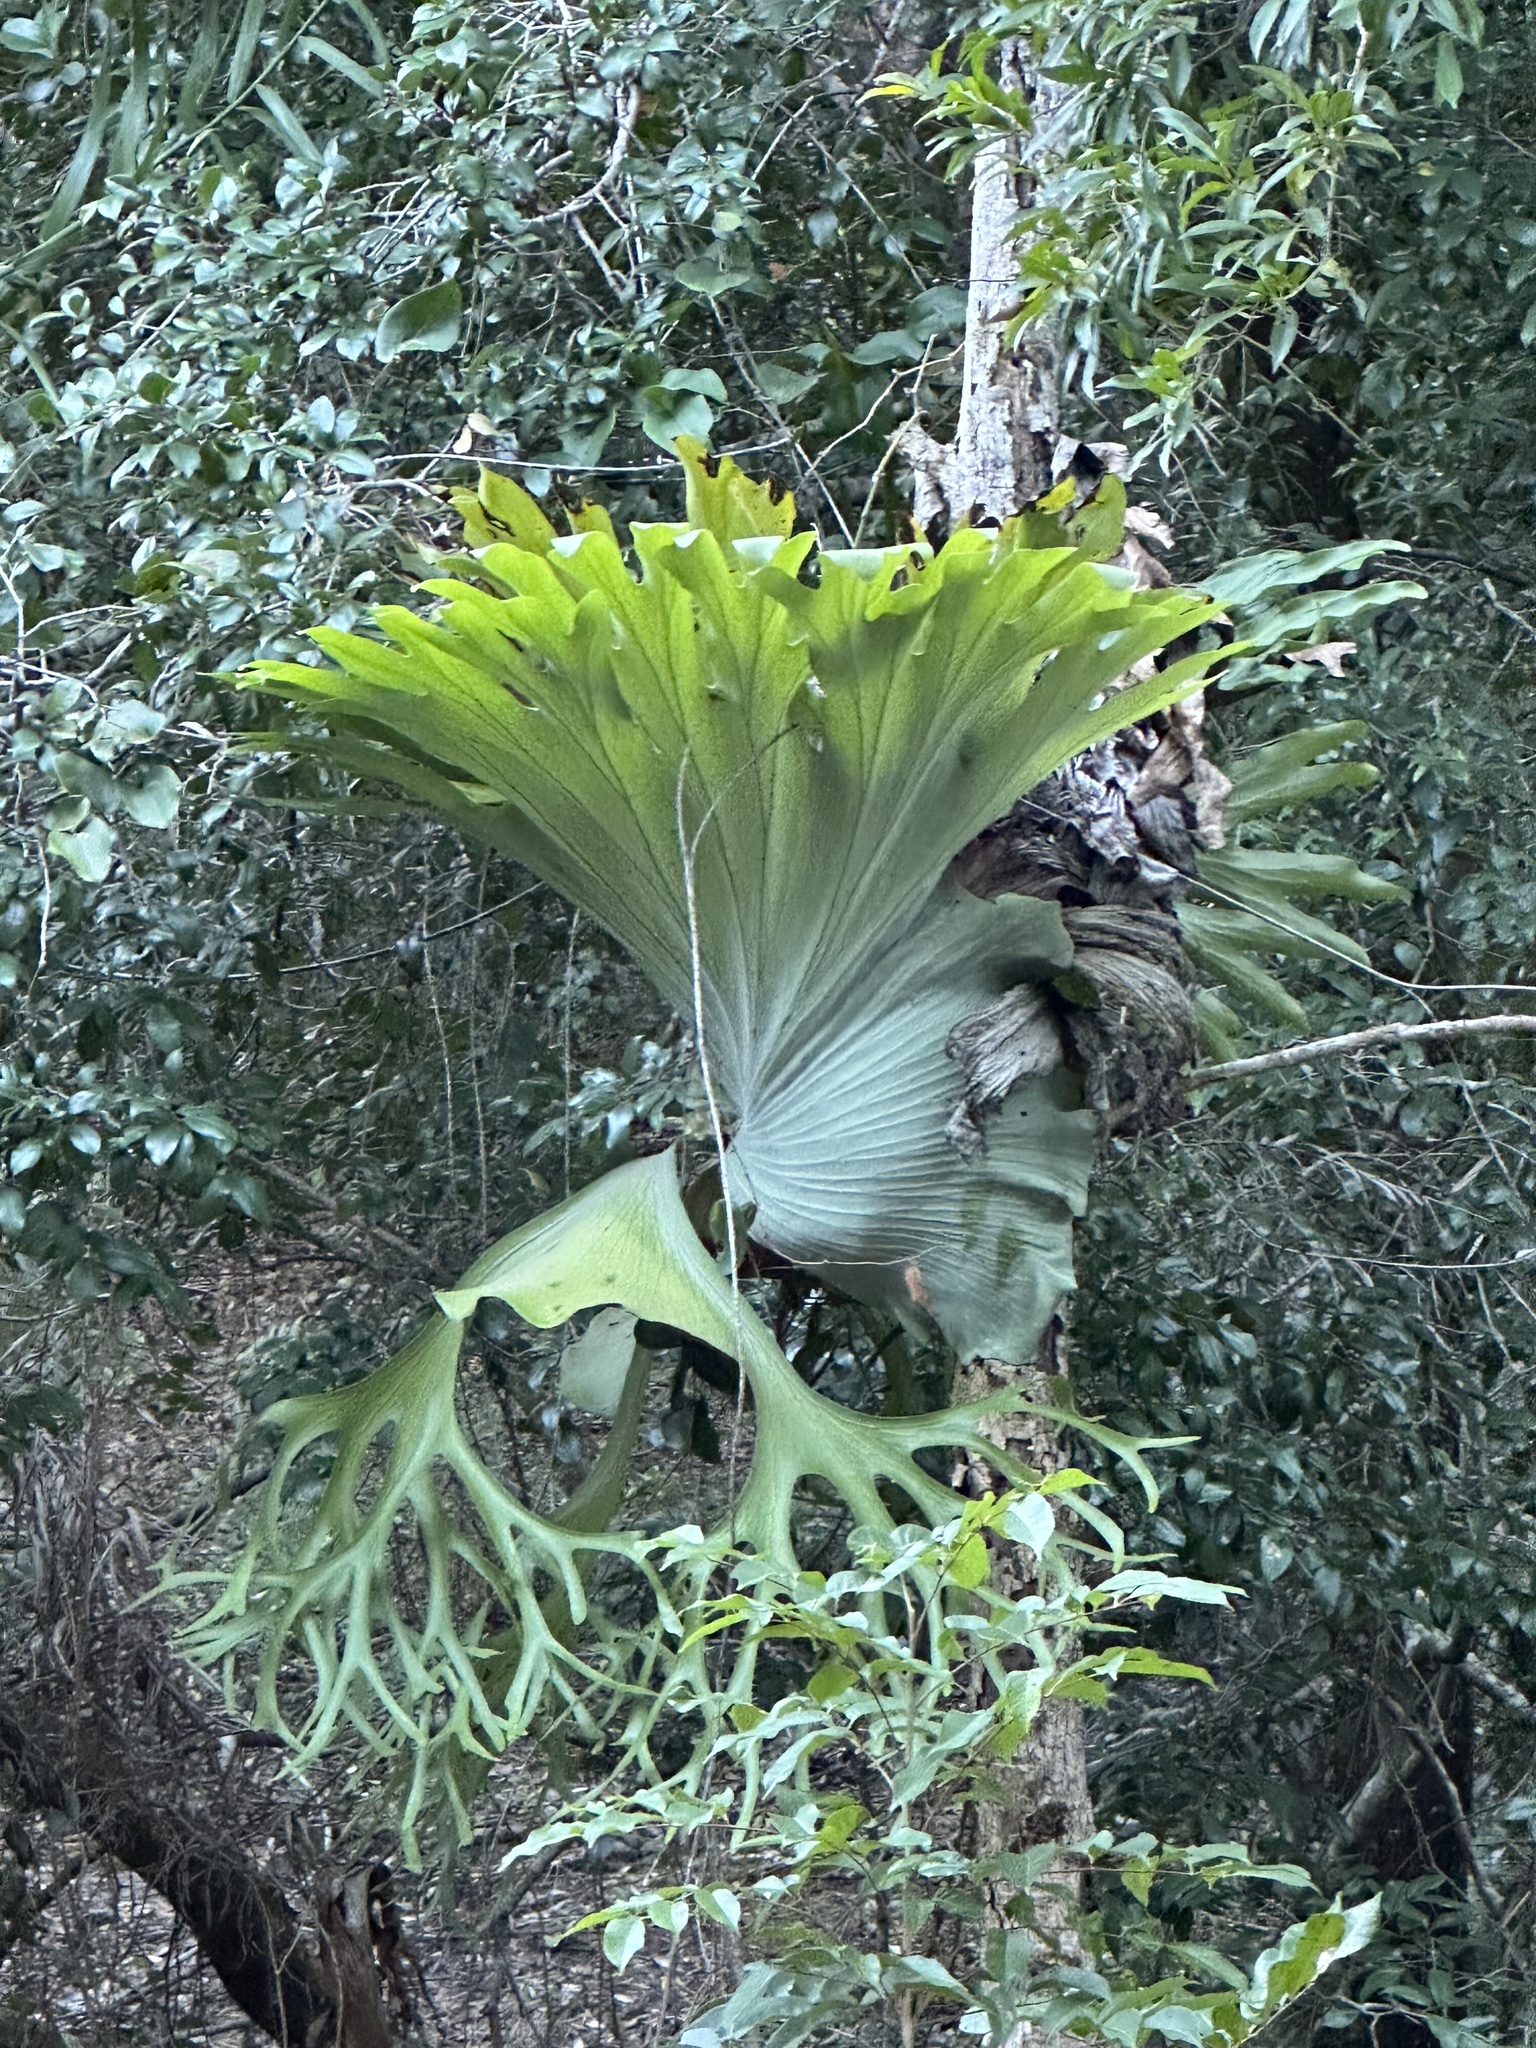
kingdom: Plantae
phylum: Tracheophyta
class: Polypodiopsida
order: Polypodiales
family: Polypodiaceae
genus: Platycerium
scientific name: Platycerium superbum
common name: Staghorn fern
